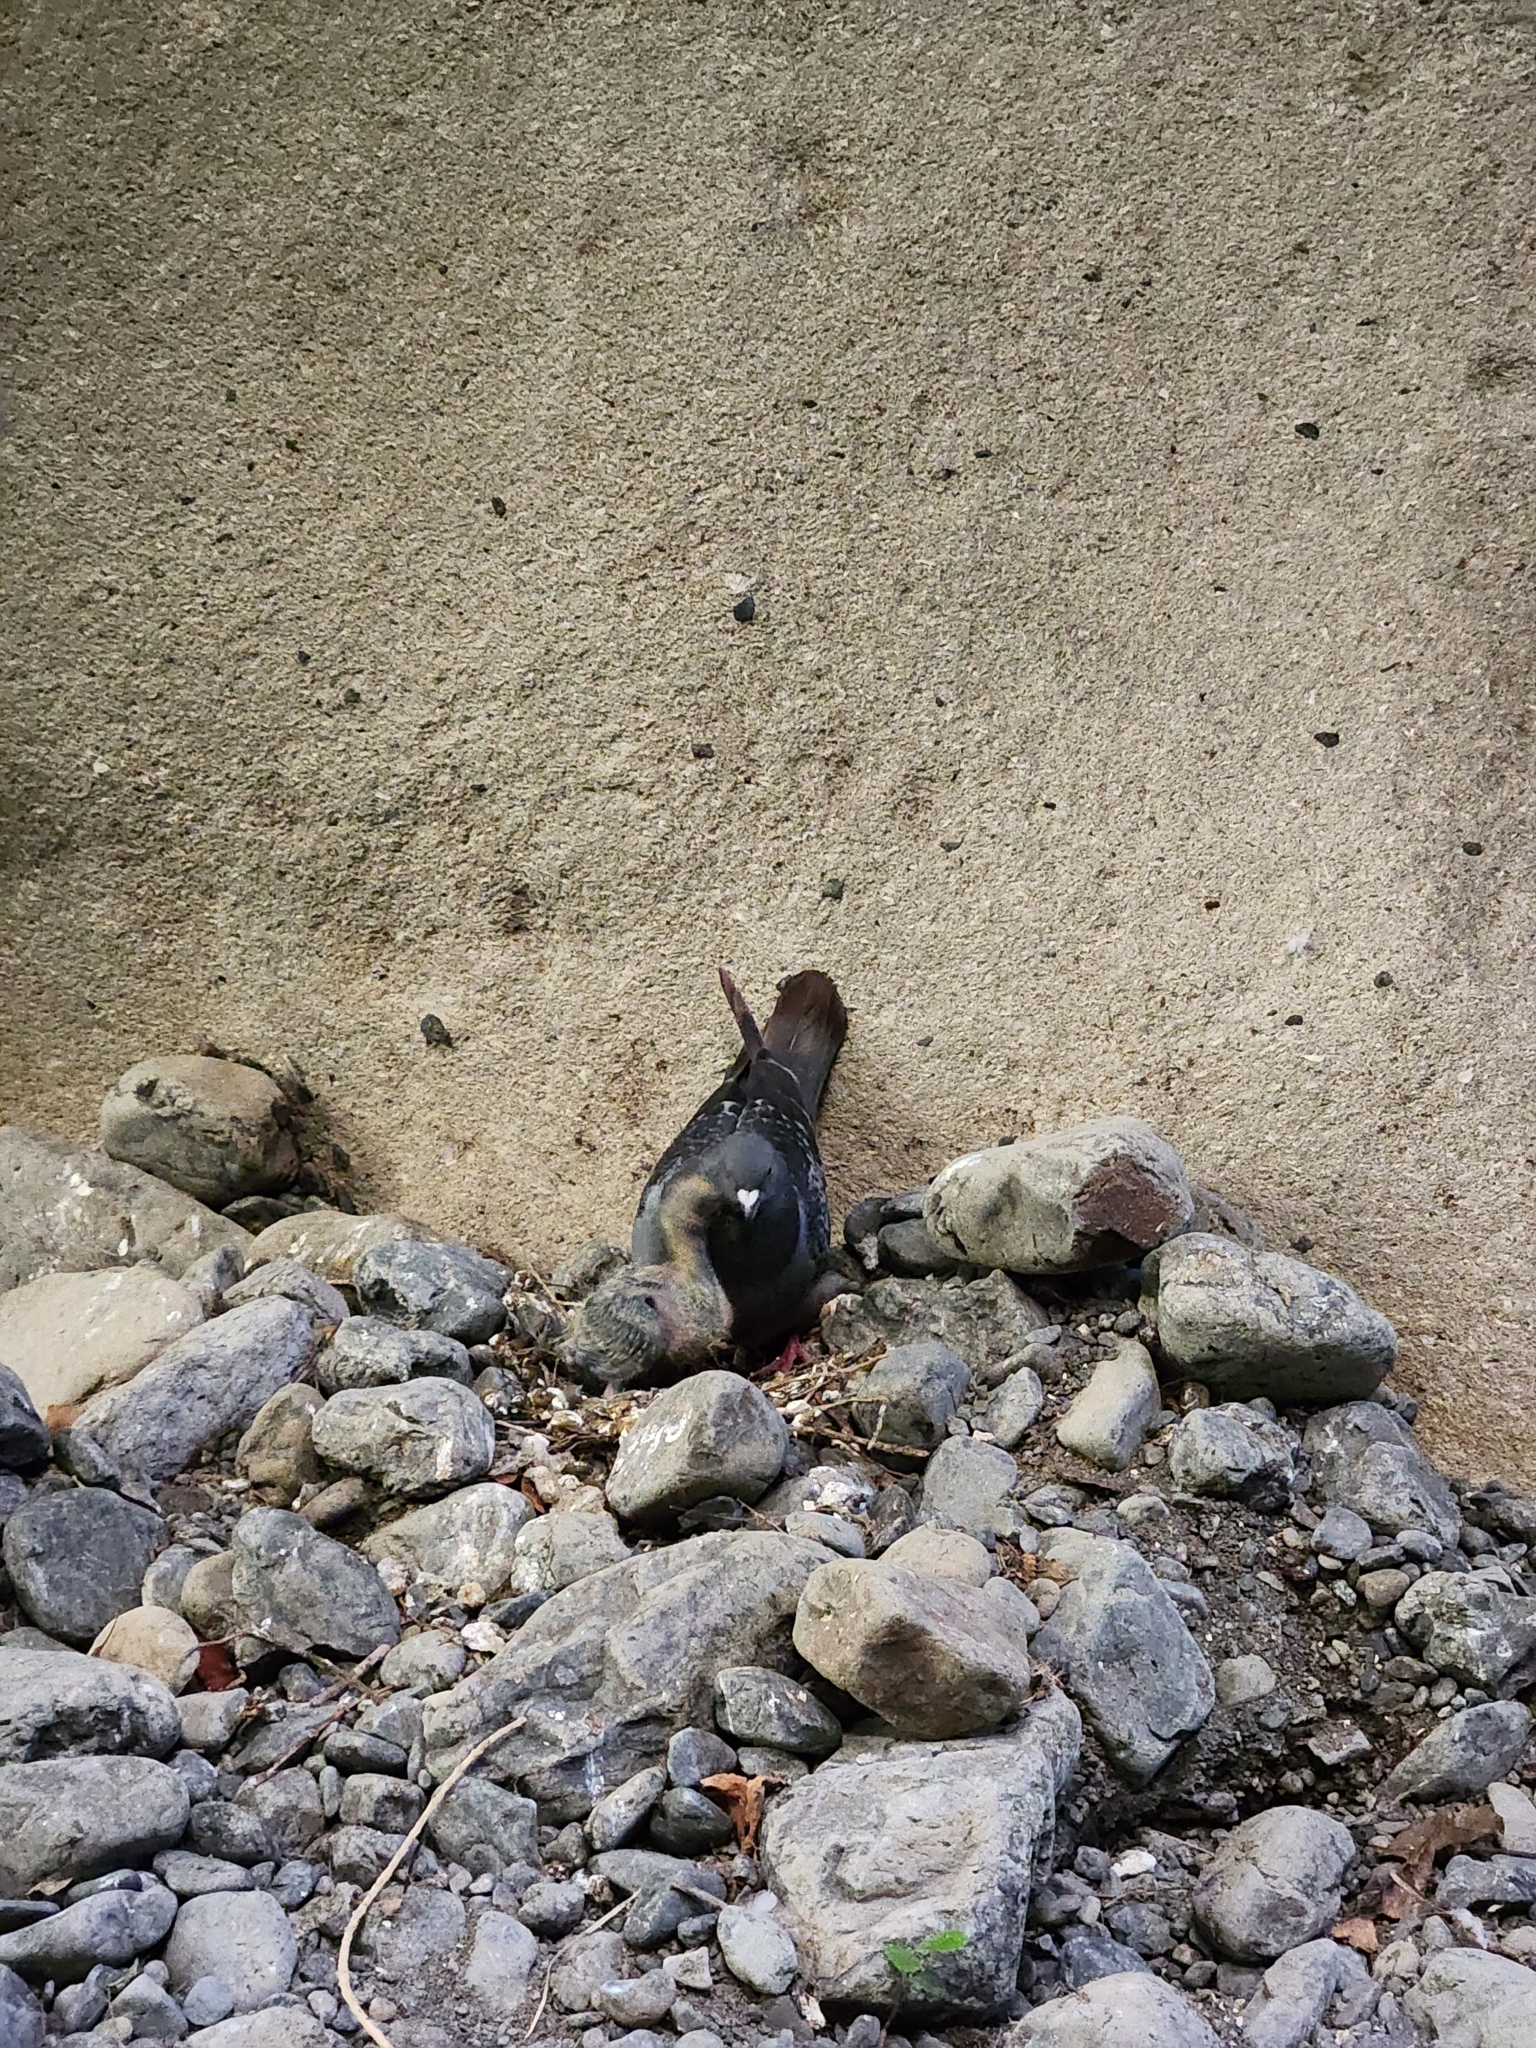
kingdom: Animalia
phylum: Chordata
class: Aves
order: Columbiformes
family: Columbidae
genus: Columba
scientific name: Columba livia
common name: Rock pigeon
